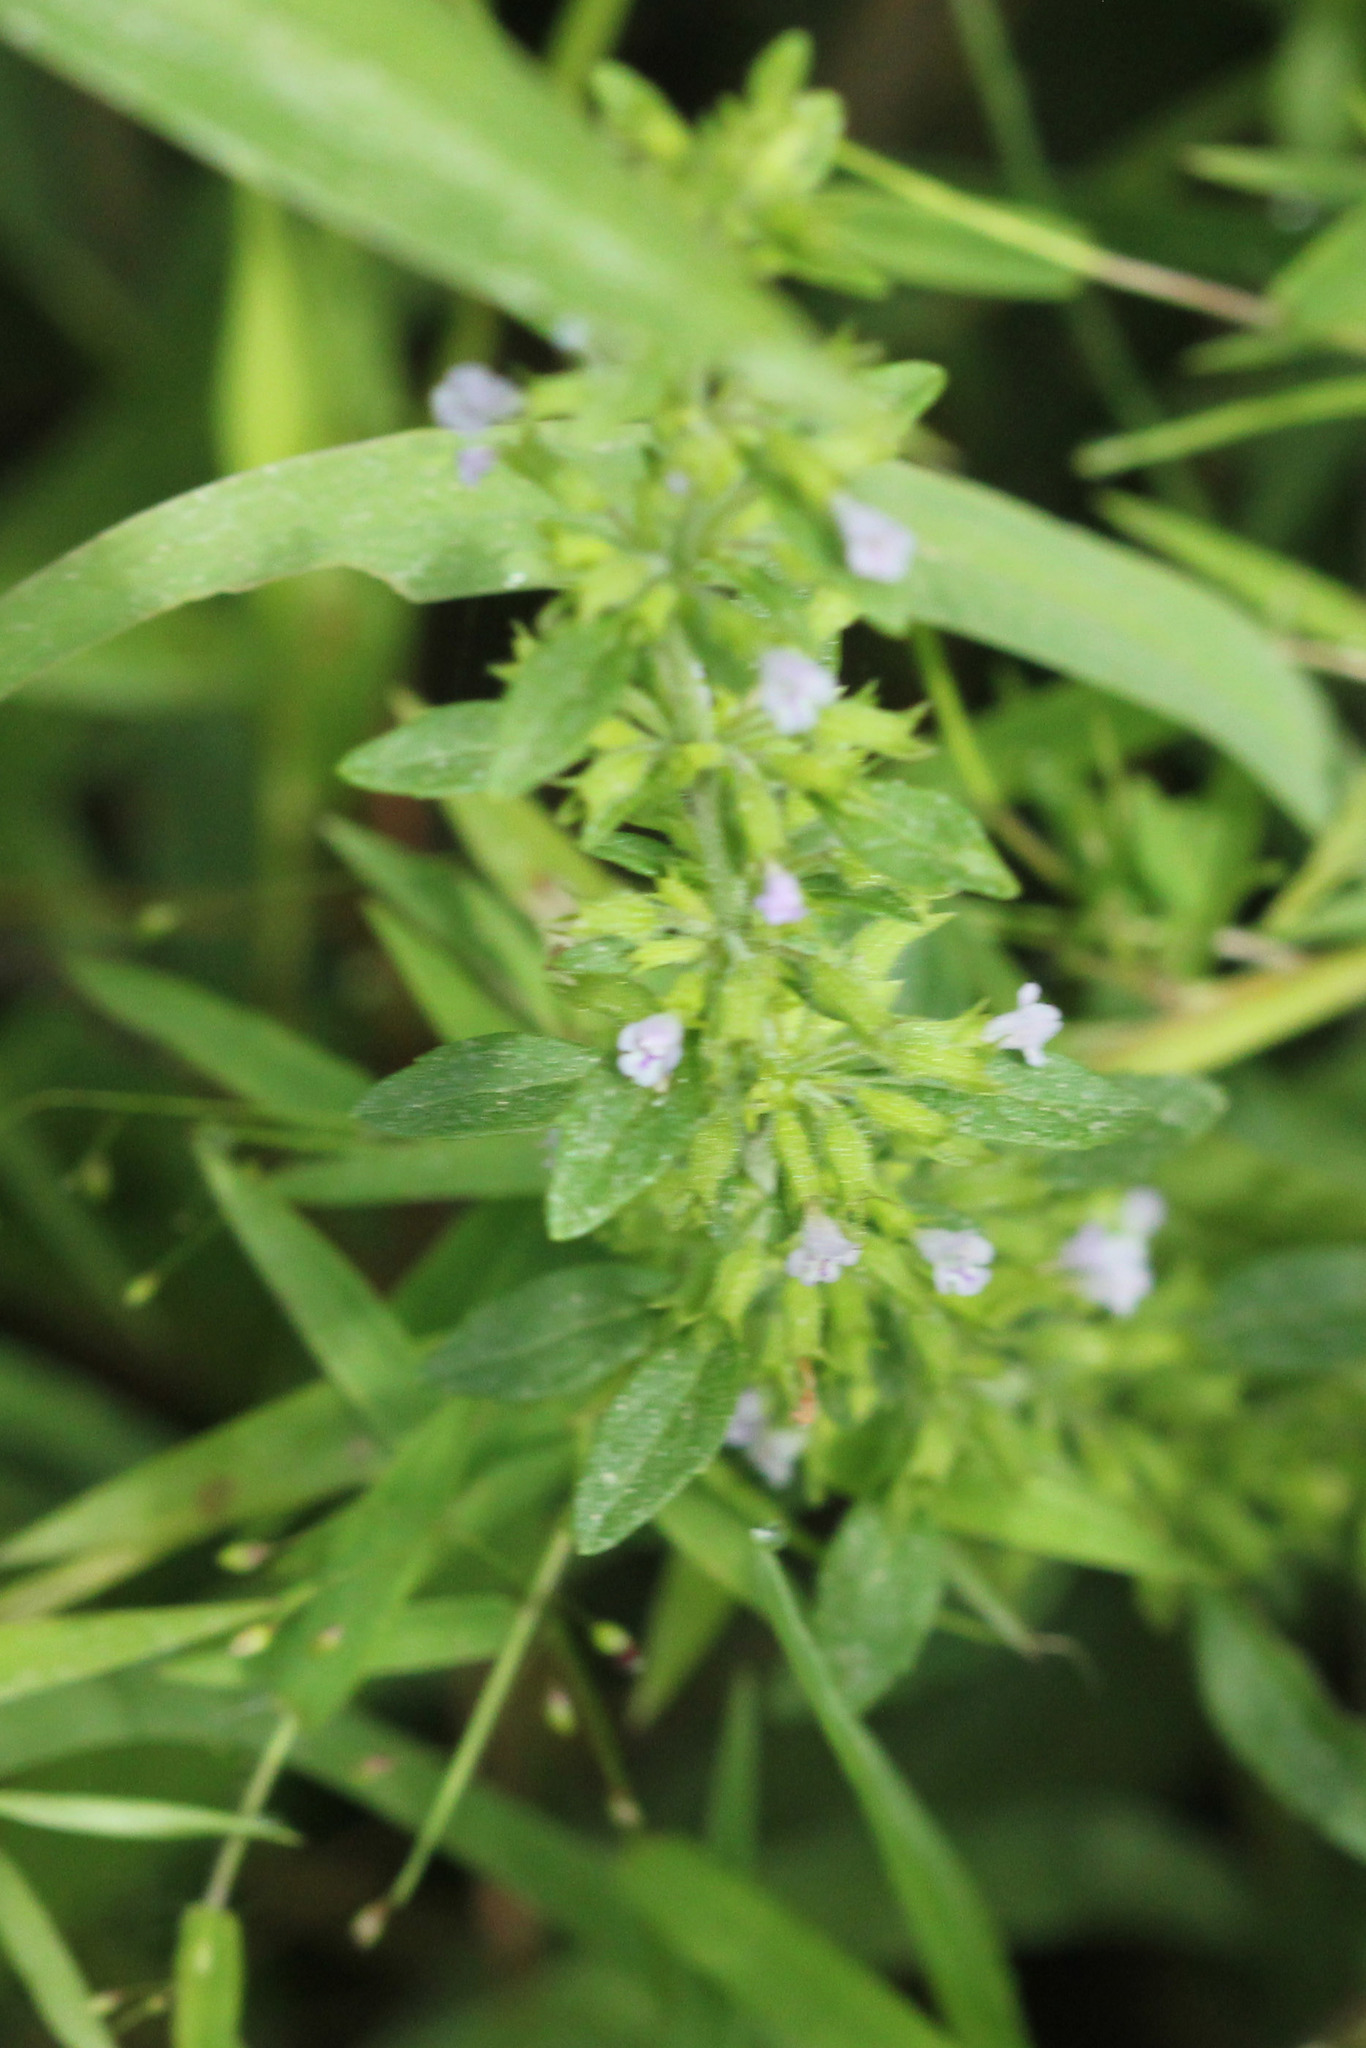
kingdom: Plantae
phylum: Tracheophyta
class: Magnoliopsida
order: Lamiales
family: Lamiaceae
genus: Hedeoma
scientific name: Hedeoma pulegioides
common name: American false pennyroyal
